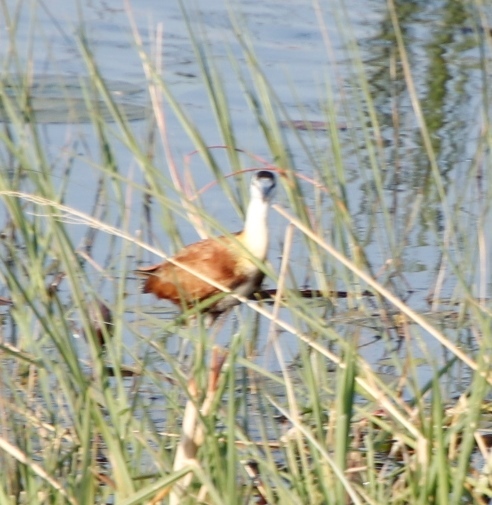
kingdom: Animalia
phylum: Chordata
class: Aves
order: Charadriiformes
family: Jacanidae
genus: Actophilornis
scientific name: Actophilornis africanus
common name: African jacana
